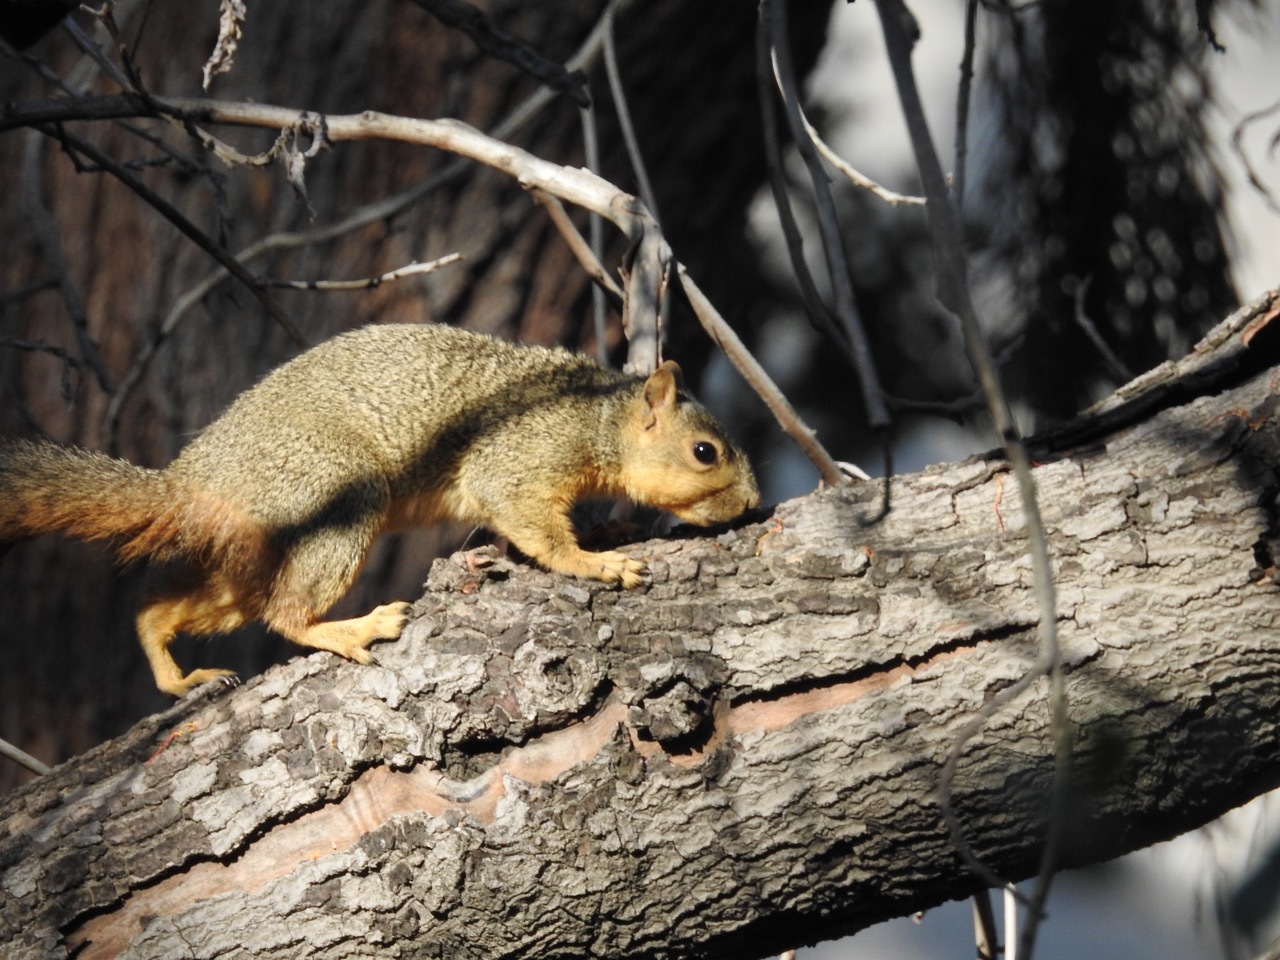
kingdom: Animalia
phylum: Chordata
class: Mammalia
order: Rodentia
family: Sciuridae
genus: Sciurus
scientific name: Sciurus niger
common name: Fox squirrel
